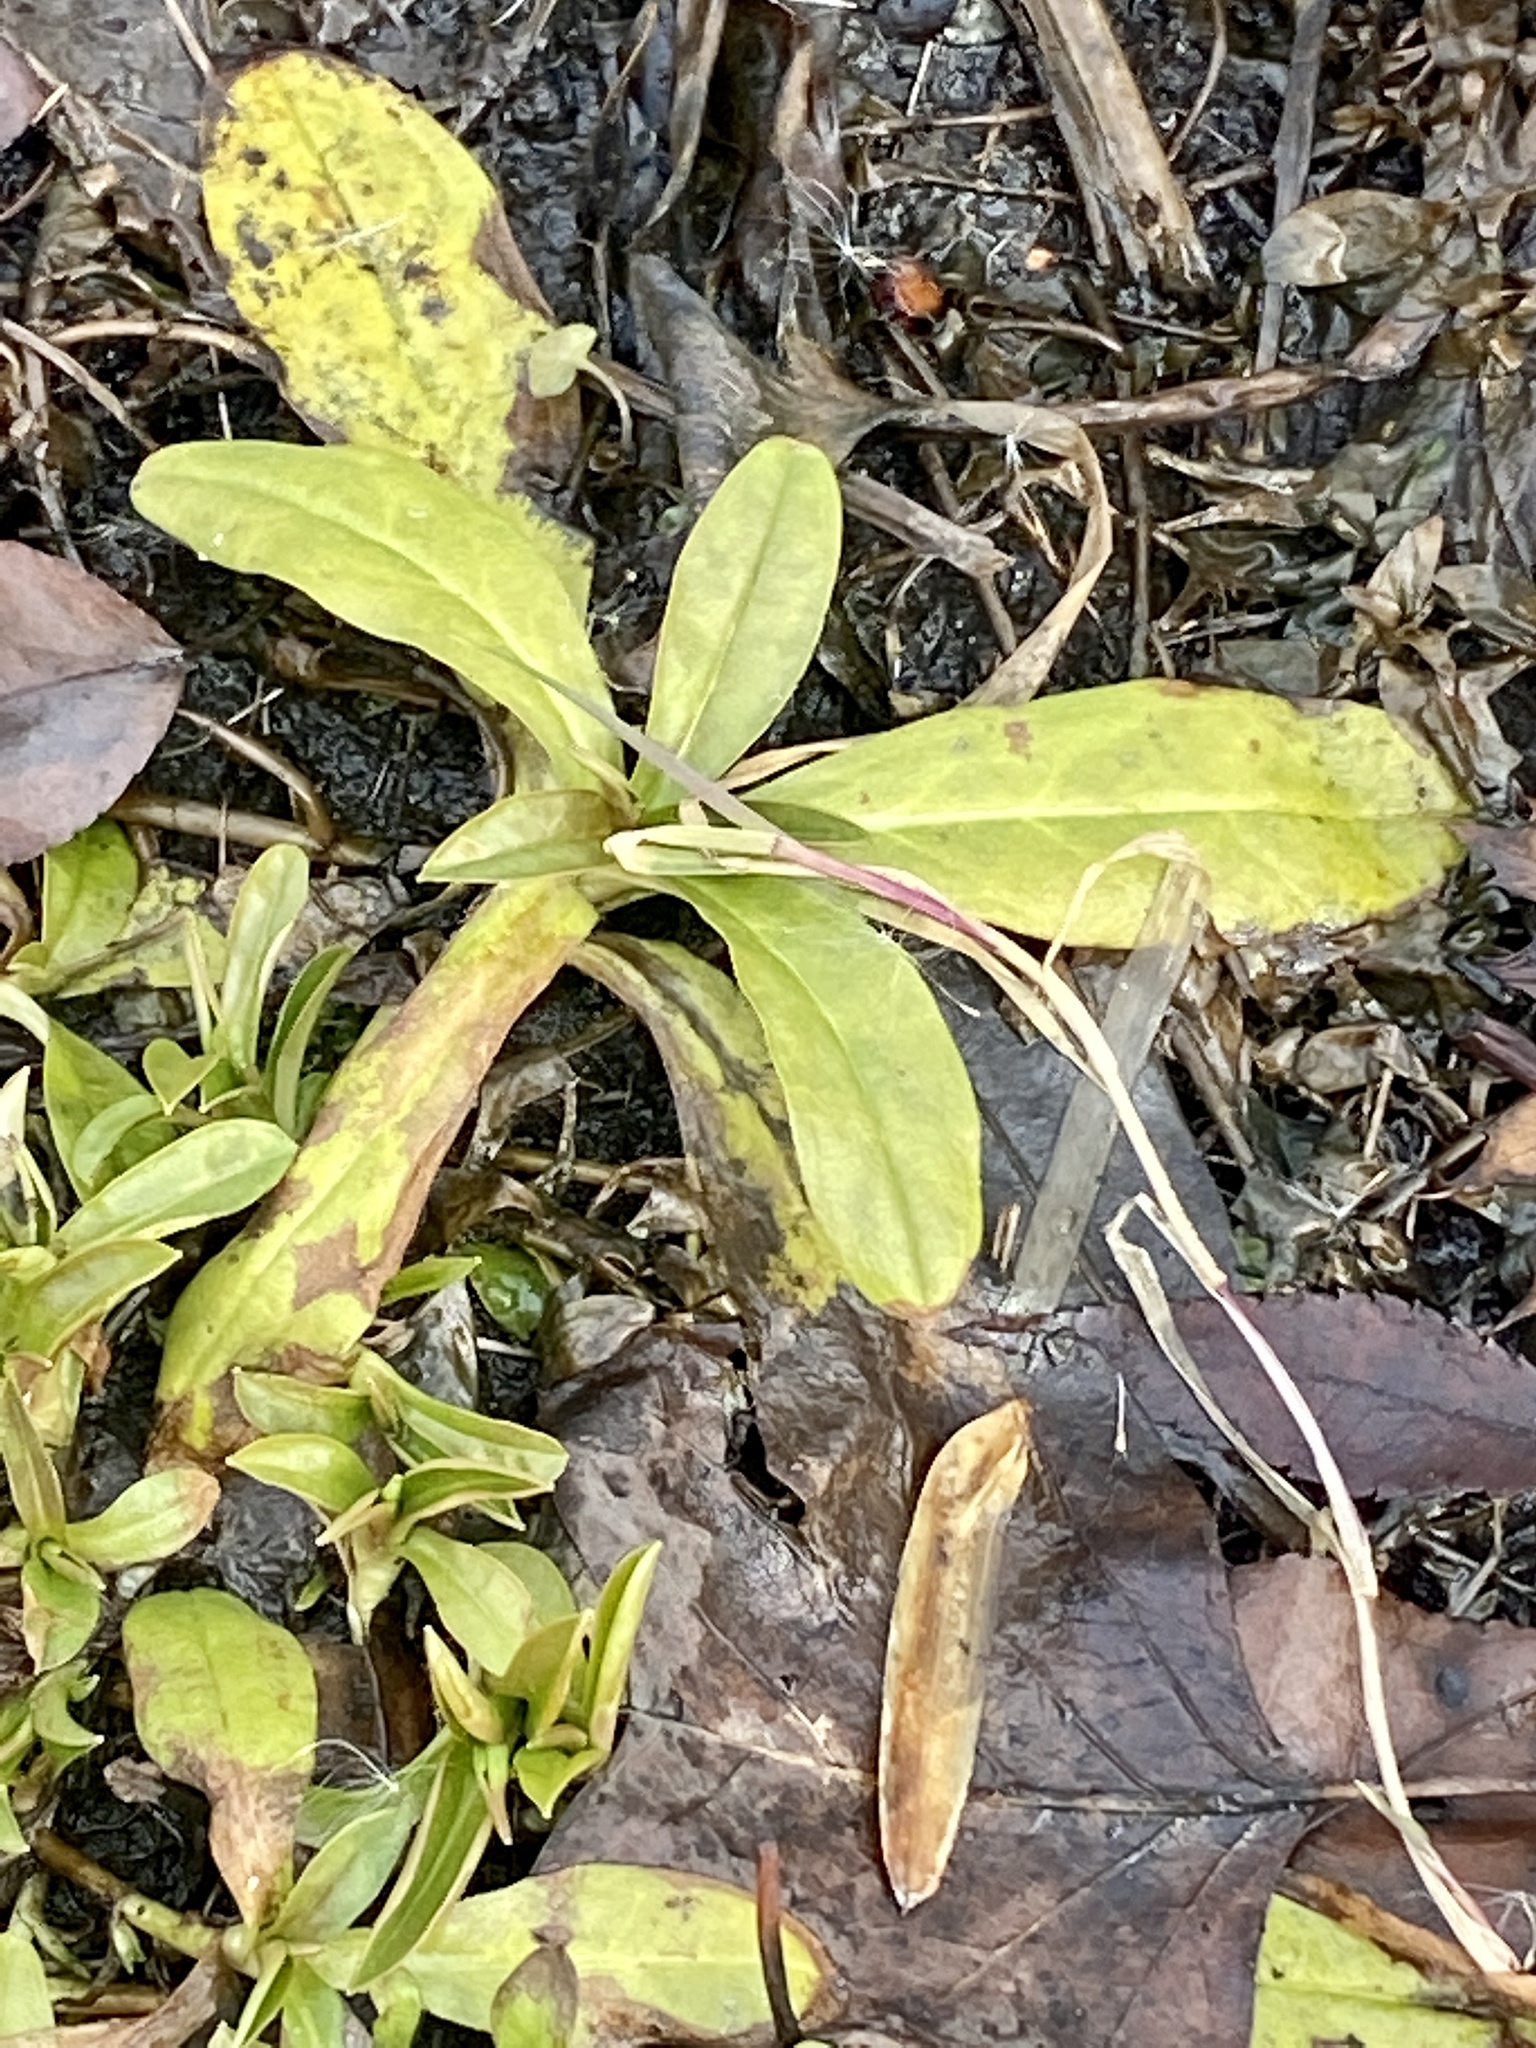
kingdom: Plantae
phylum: Tracheophyta
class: Magnoliopsida
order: Boraginales
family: Boraginaceae
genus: Myosotis
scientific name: Myosotis scorpioides
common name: Water forget-me-not
